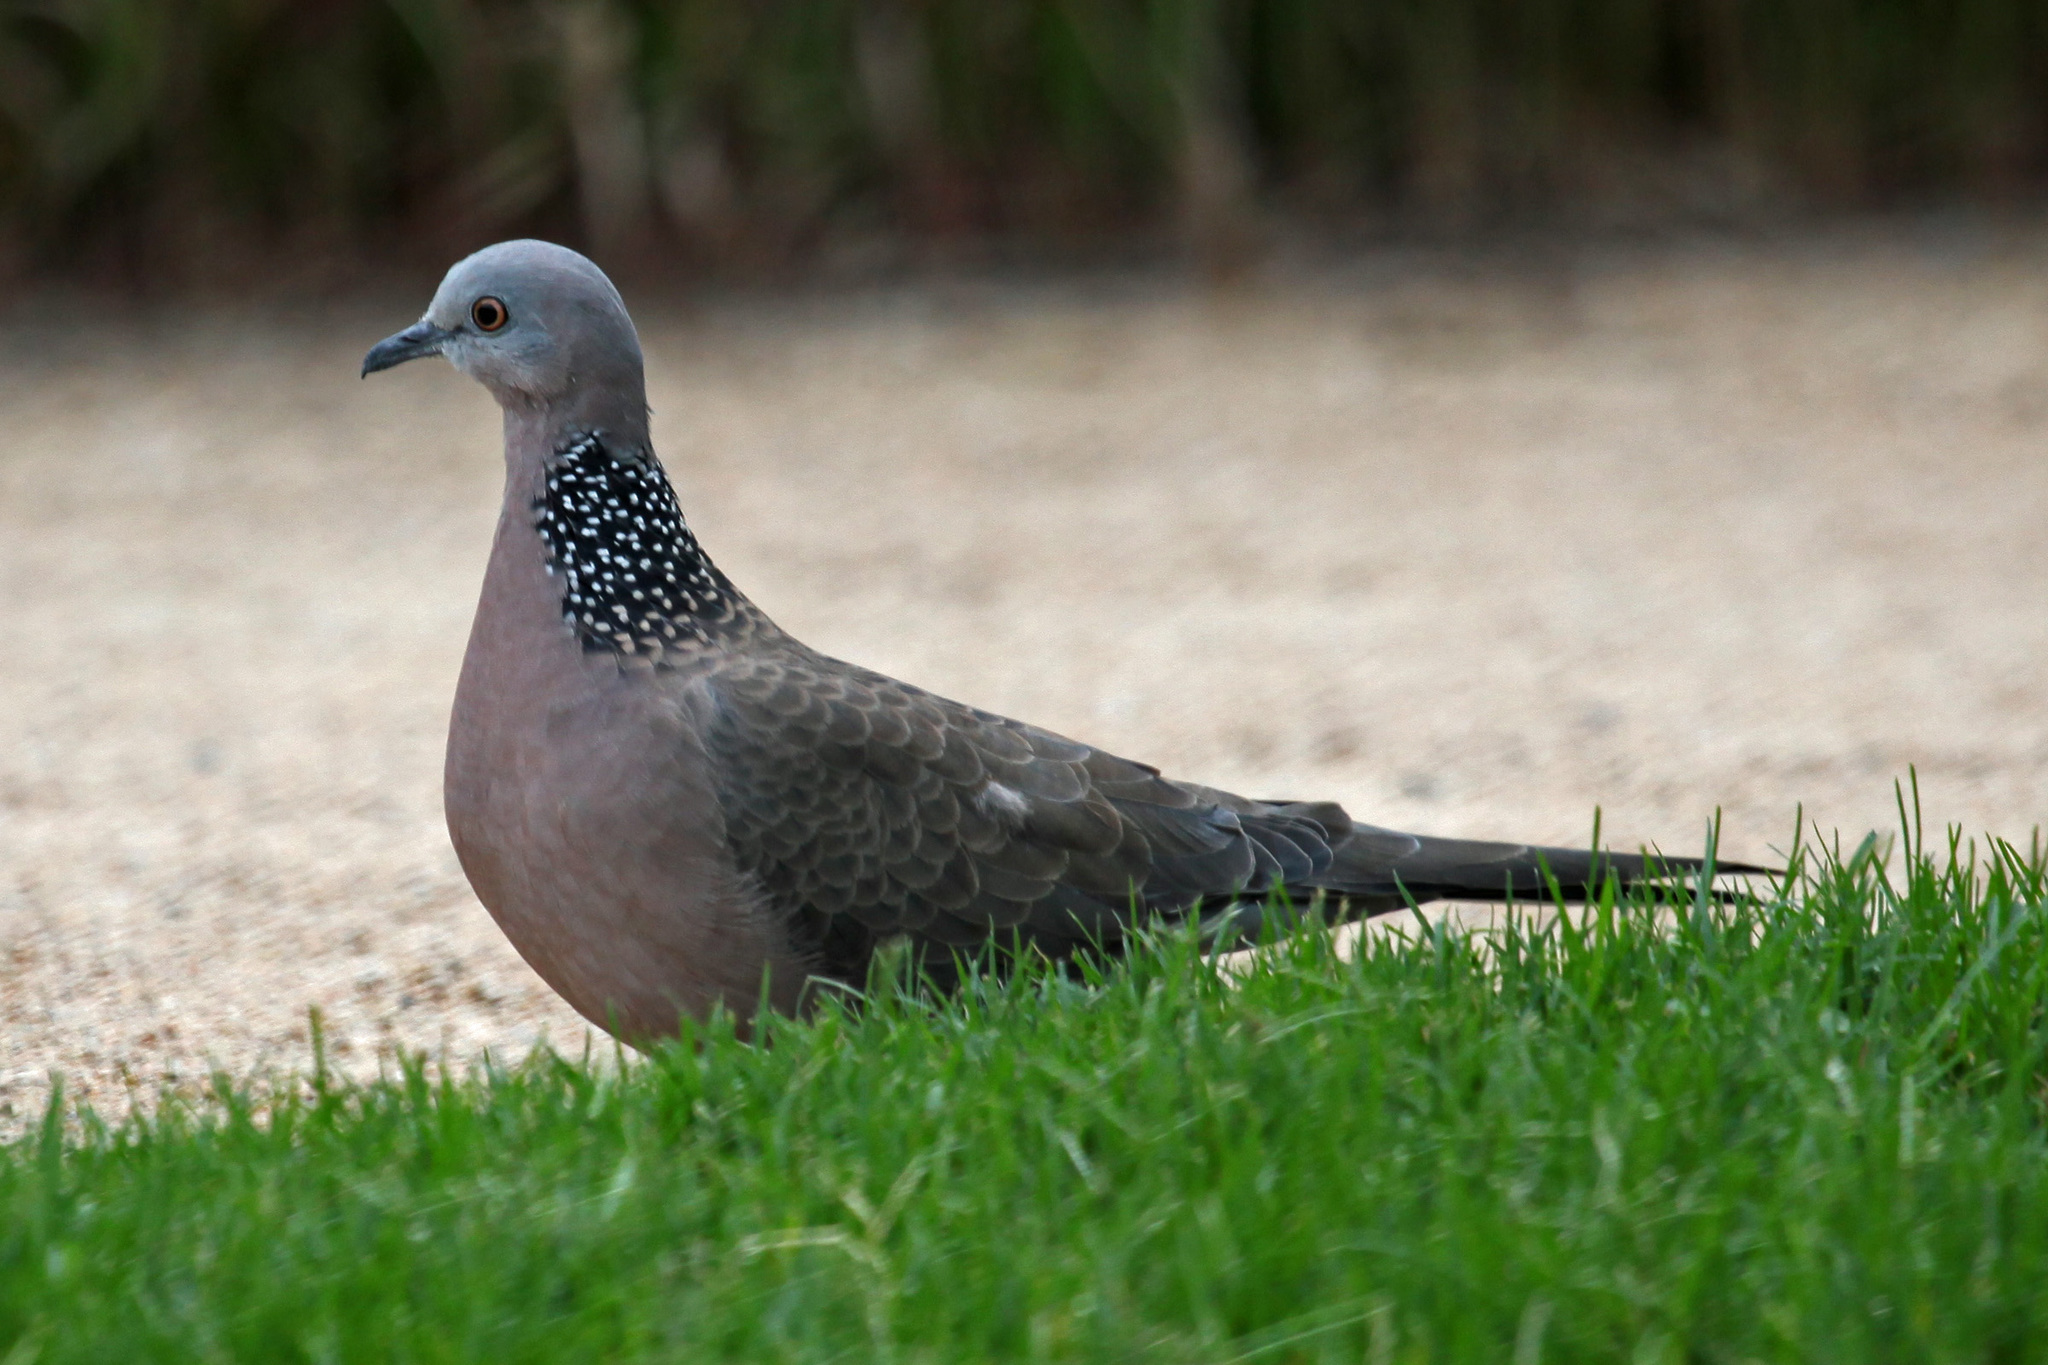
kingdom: Animalia
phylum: Chordata
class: Aves
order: Columbiformes
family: Columbidae
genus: Spilopelia
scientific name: Spilopelia chinensis
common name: Spotted dove
